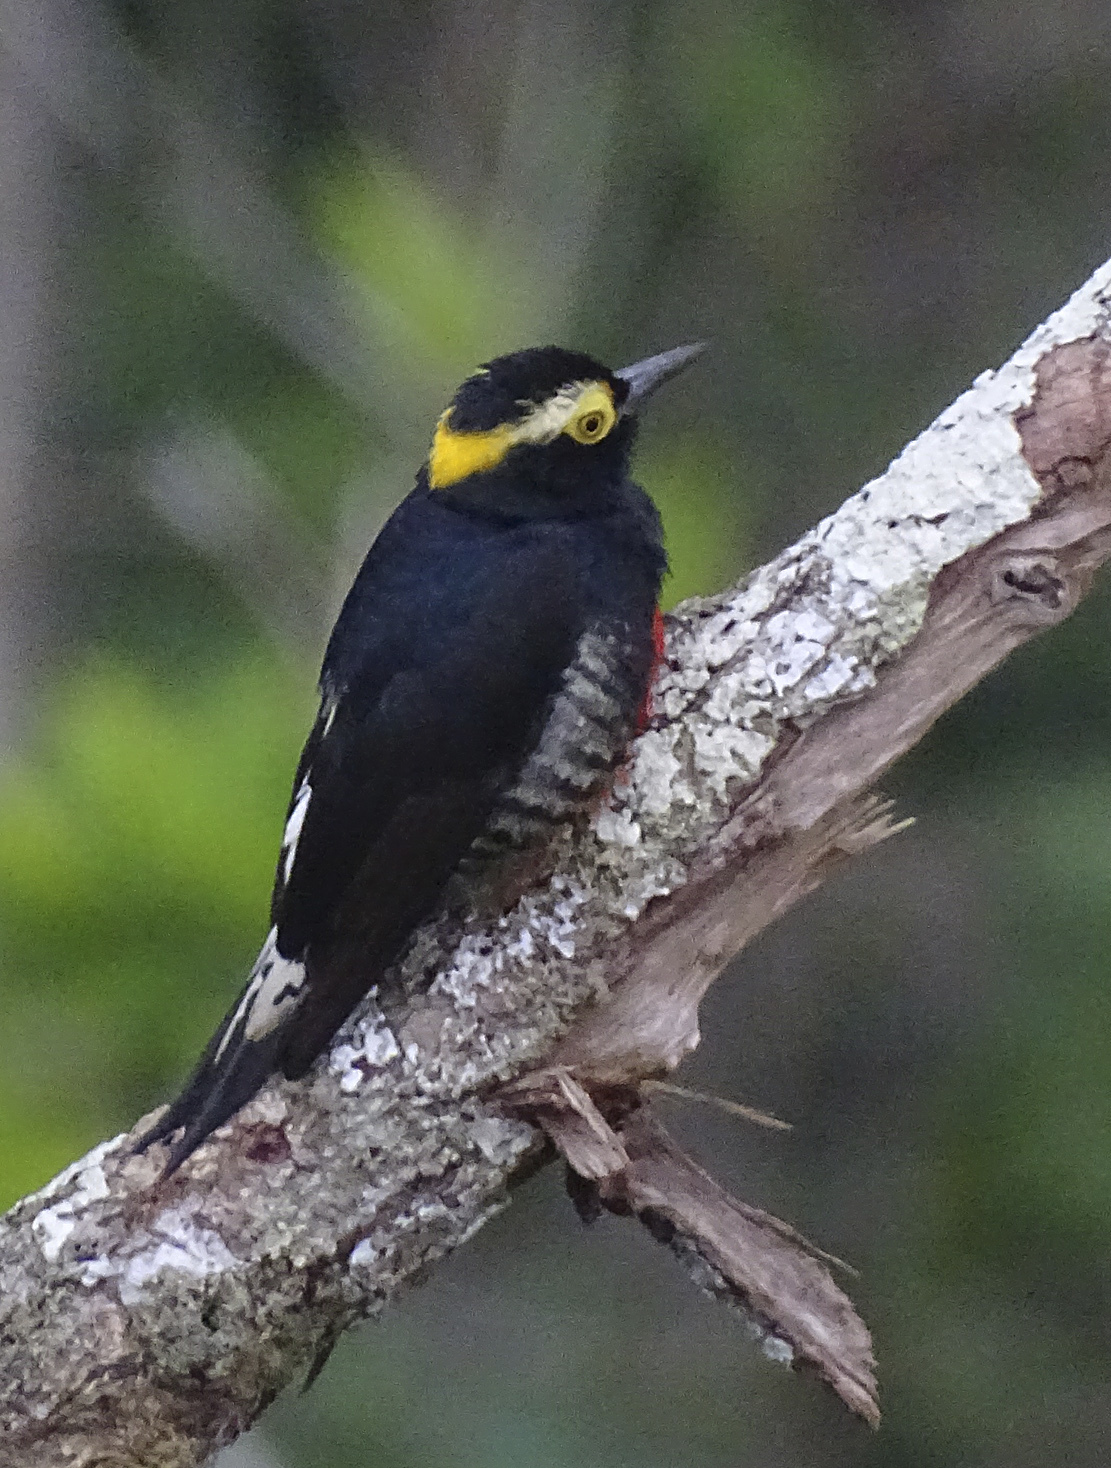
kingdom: Animalia
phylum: Chordata
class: Aves
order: Piciformes
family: Picidae
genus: Melanerpes
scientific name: Melanerpes cruentatus
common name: Yellow-tufted woodpecker
